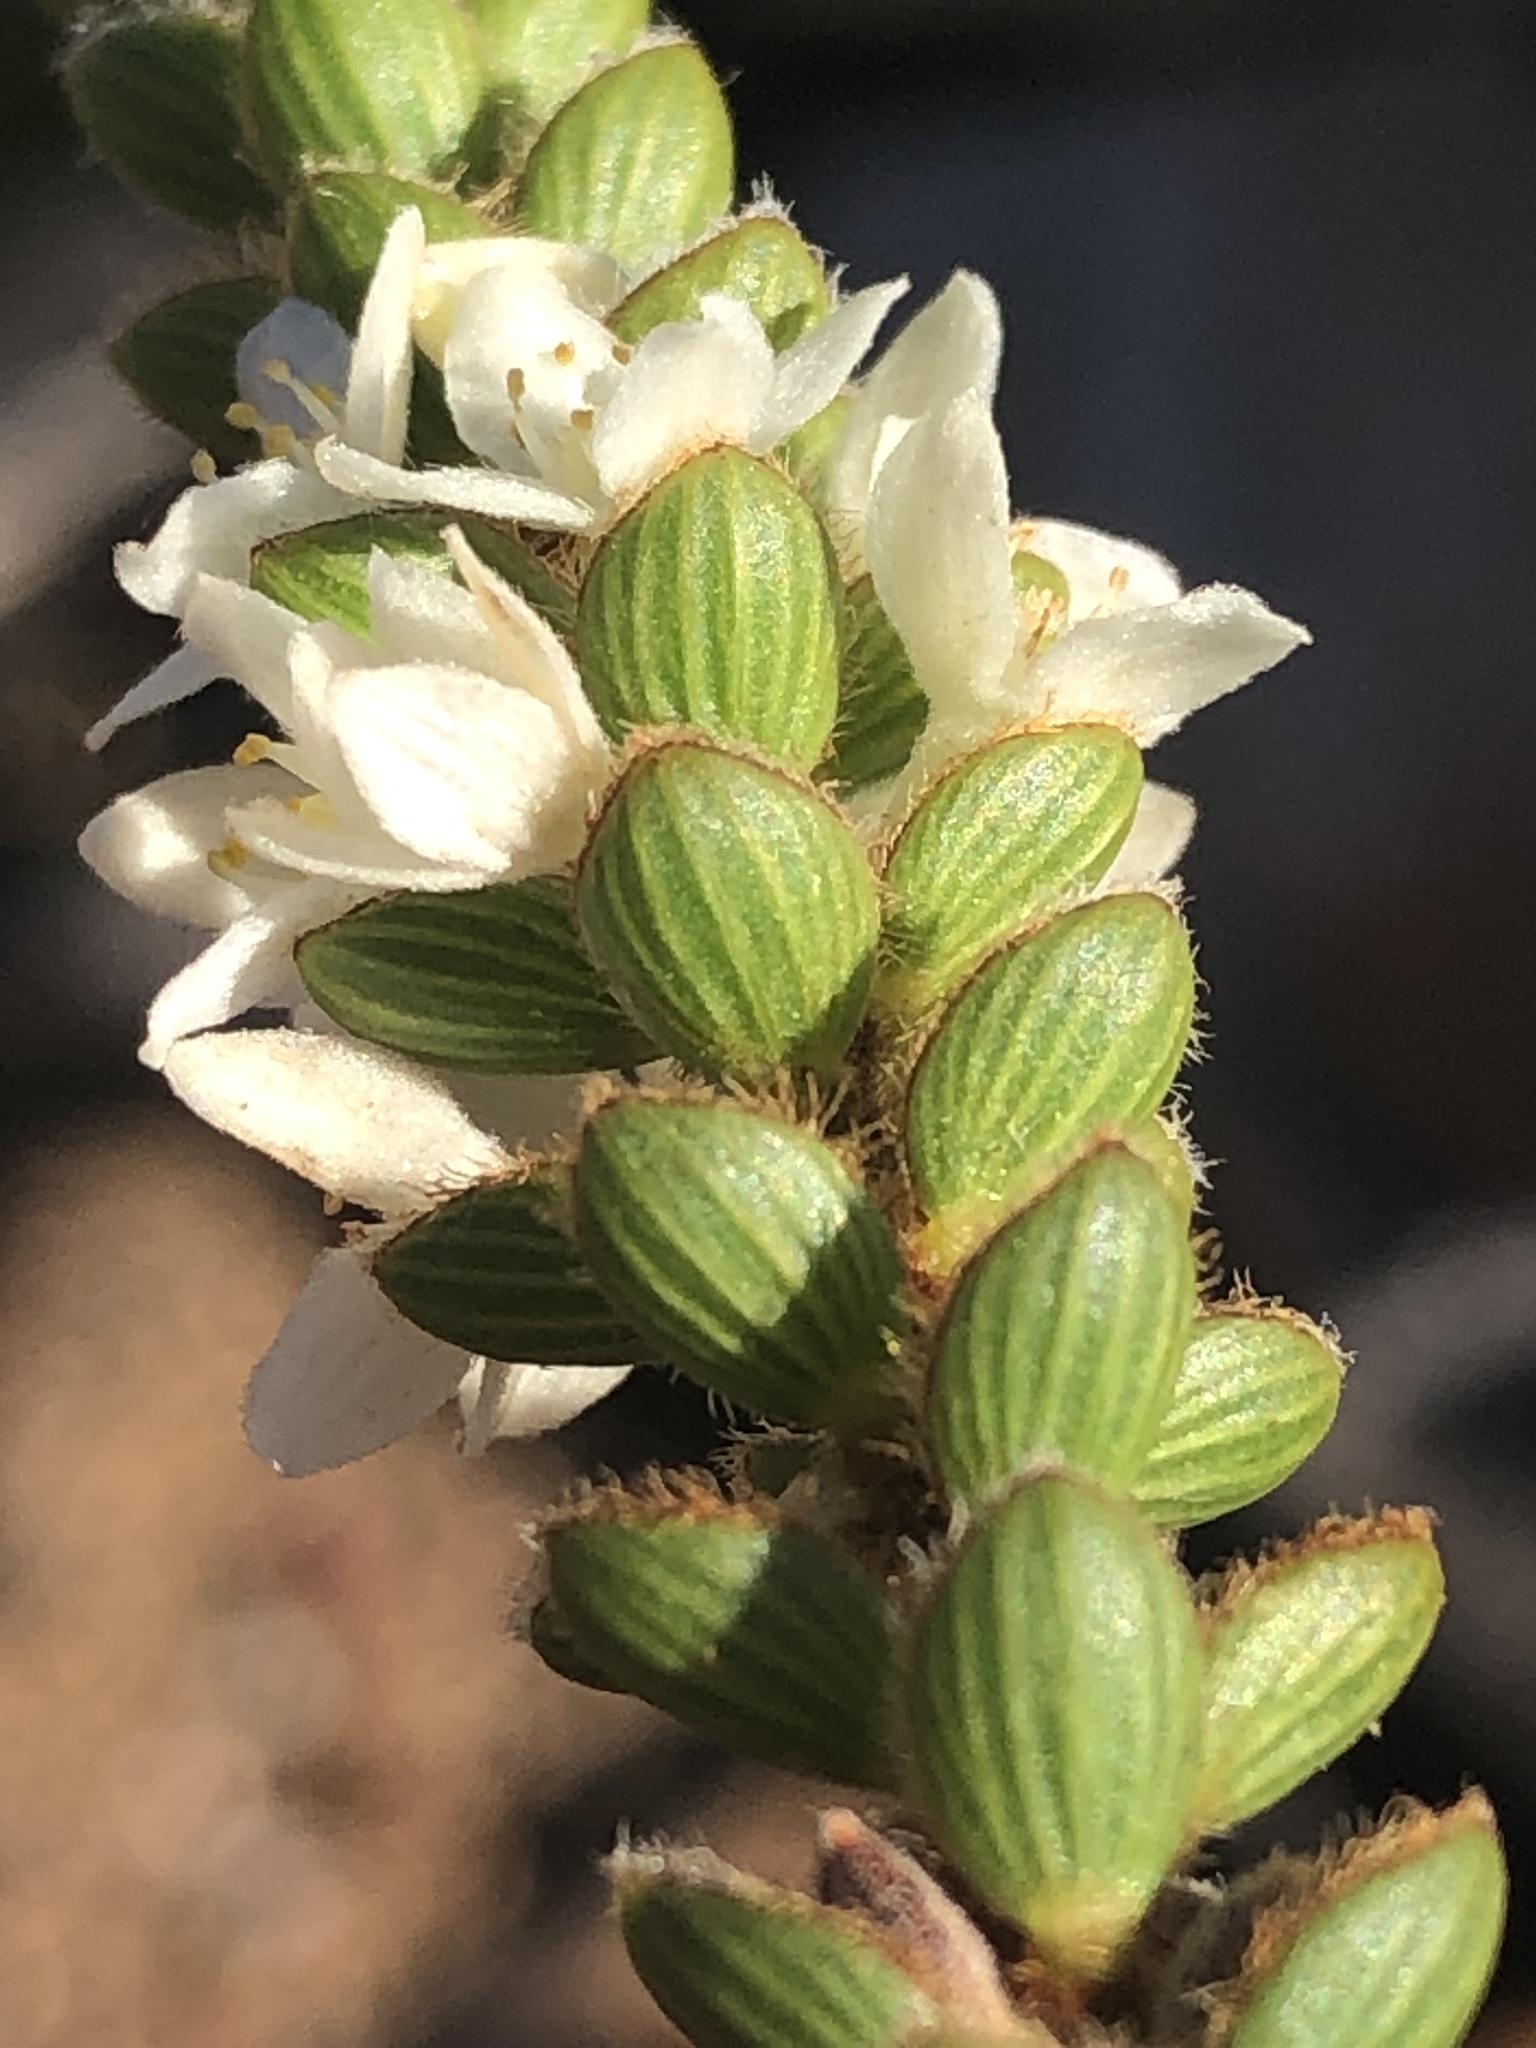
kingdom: Plantae
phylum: Tracheophyta
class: Magnoliopsida
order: Malvales
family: Thymelaeaceae
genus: Lachnaea
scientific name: Lachnaea ruscifolia
